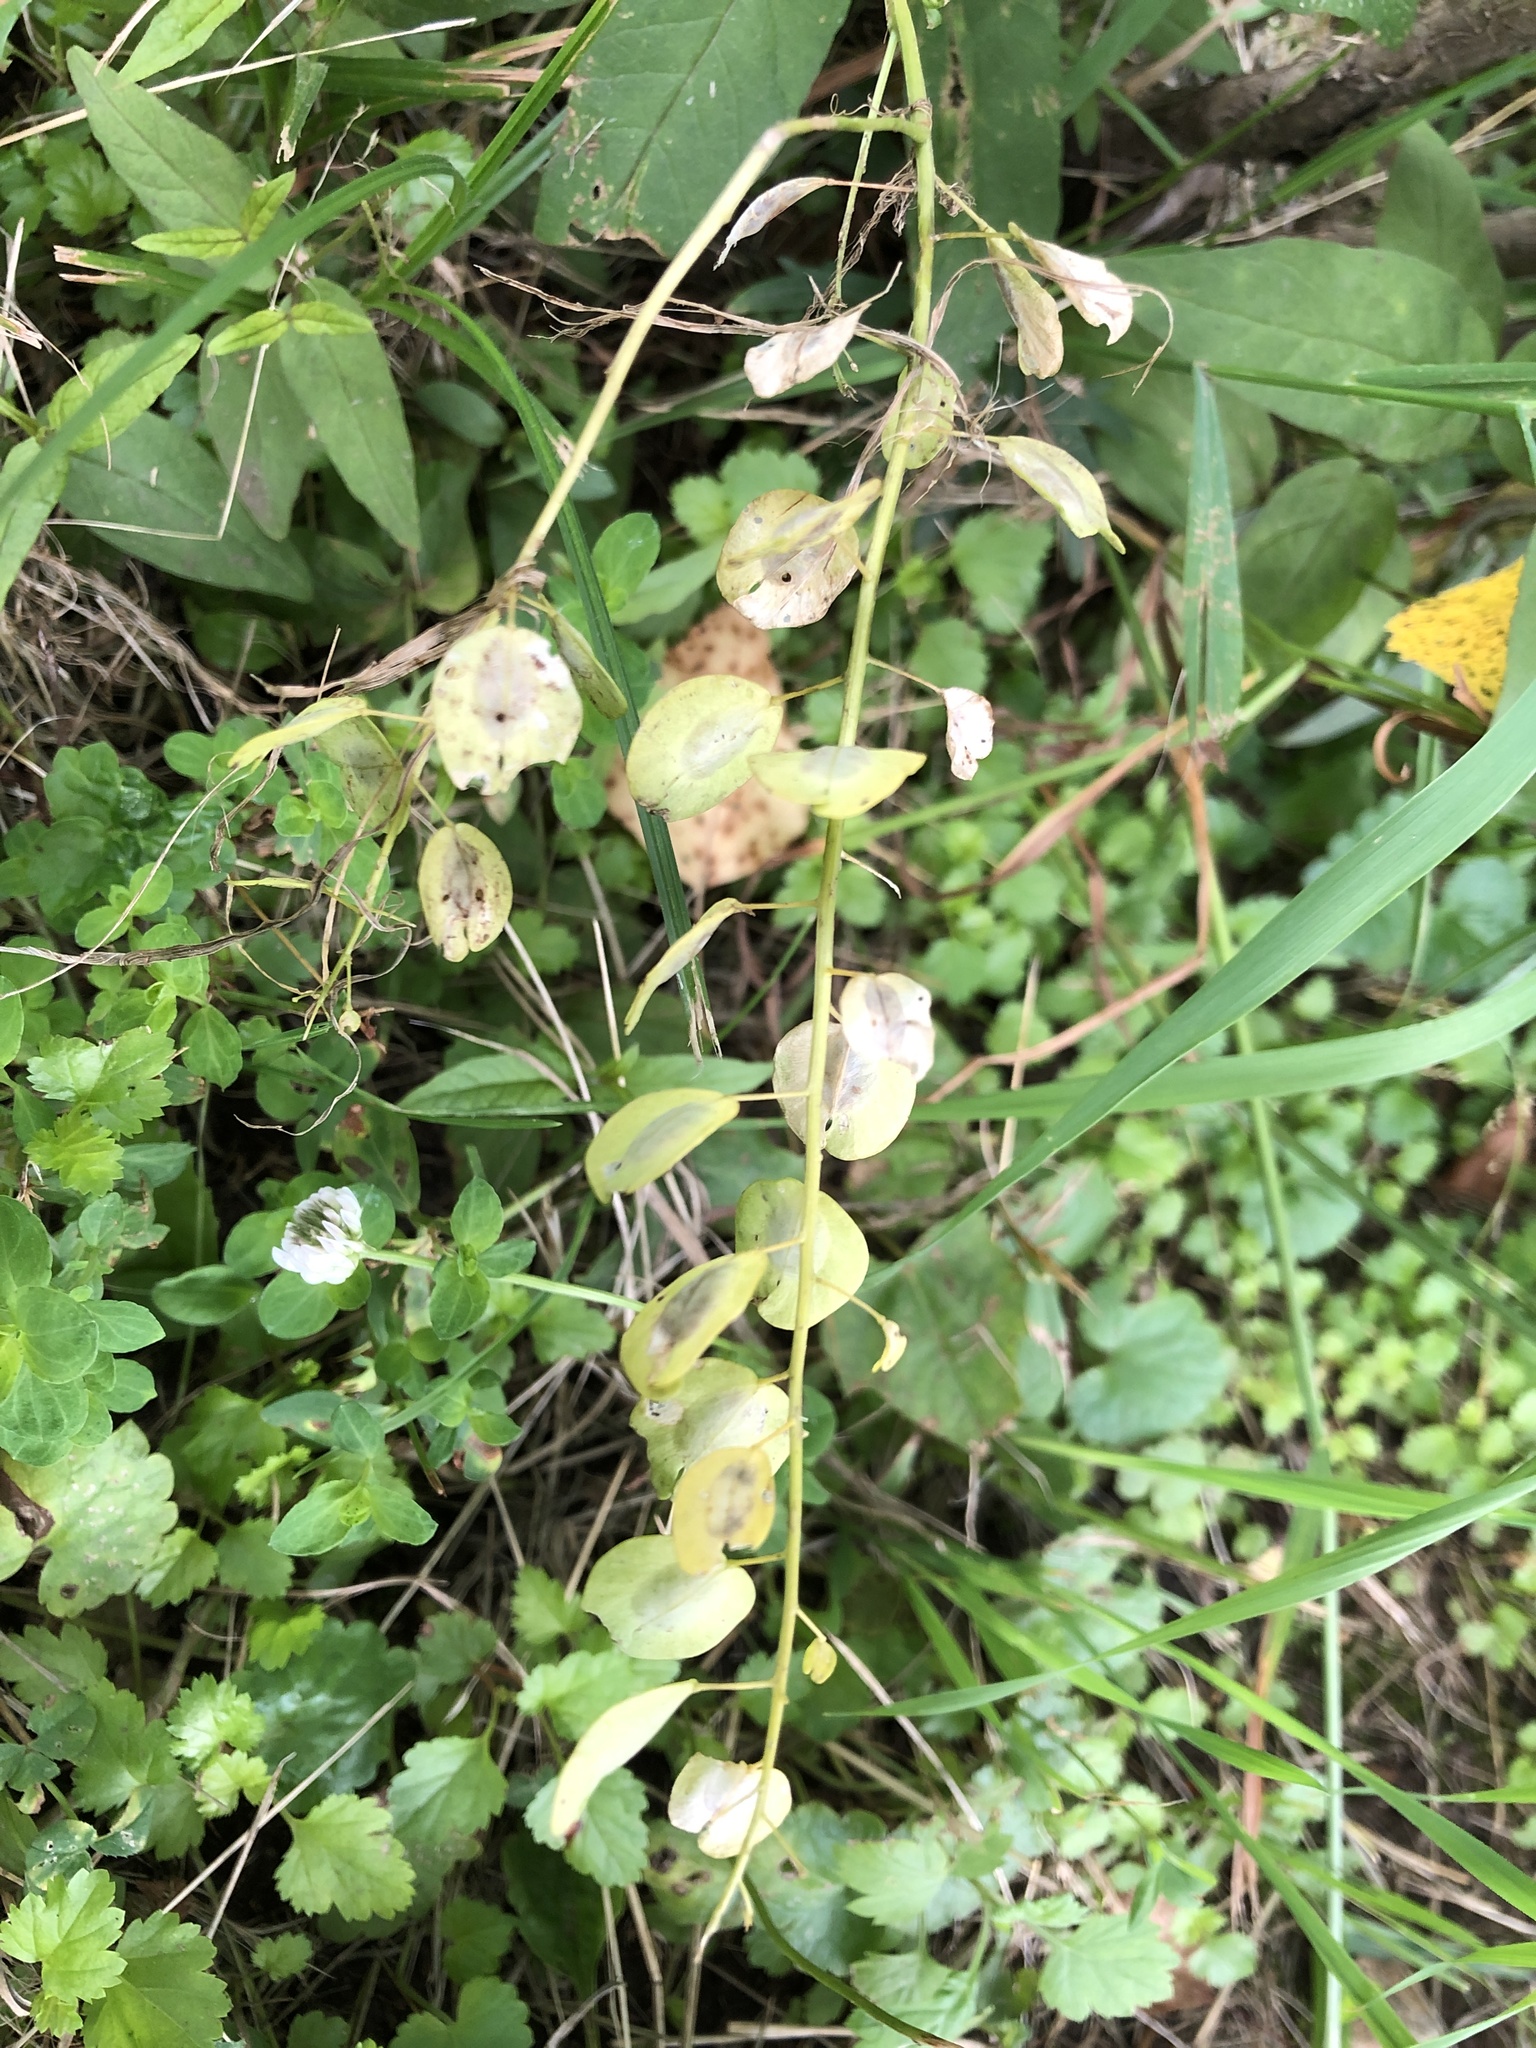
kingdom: Plantae
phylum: Tracheophyta
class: Magnoliopsida
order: Brassicales
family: Brassicaceae
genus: Thlaspi
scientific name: Thlaspi arvense
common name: Field pennycress
